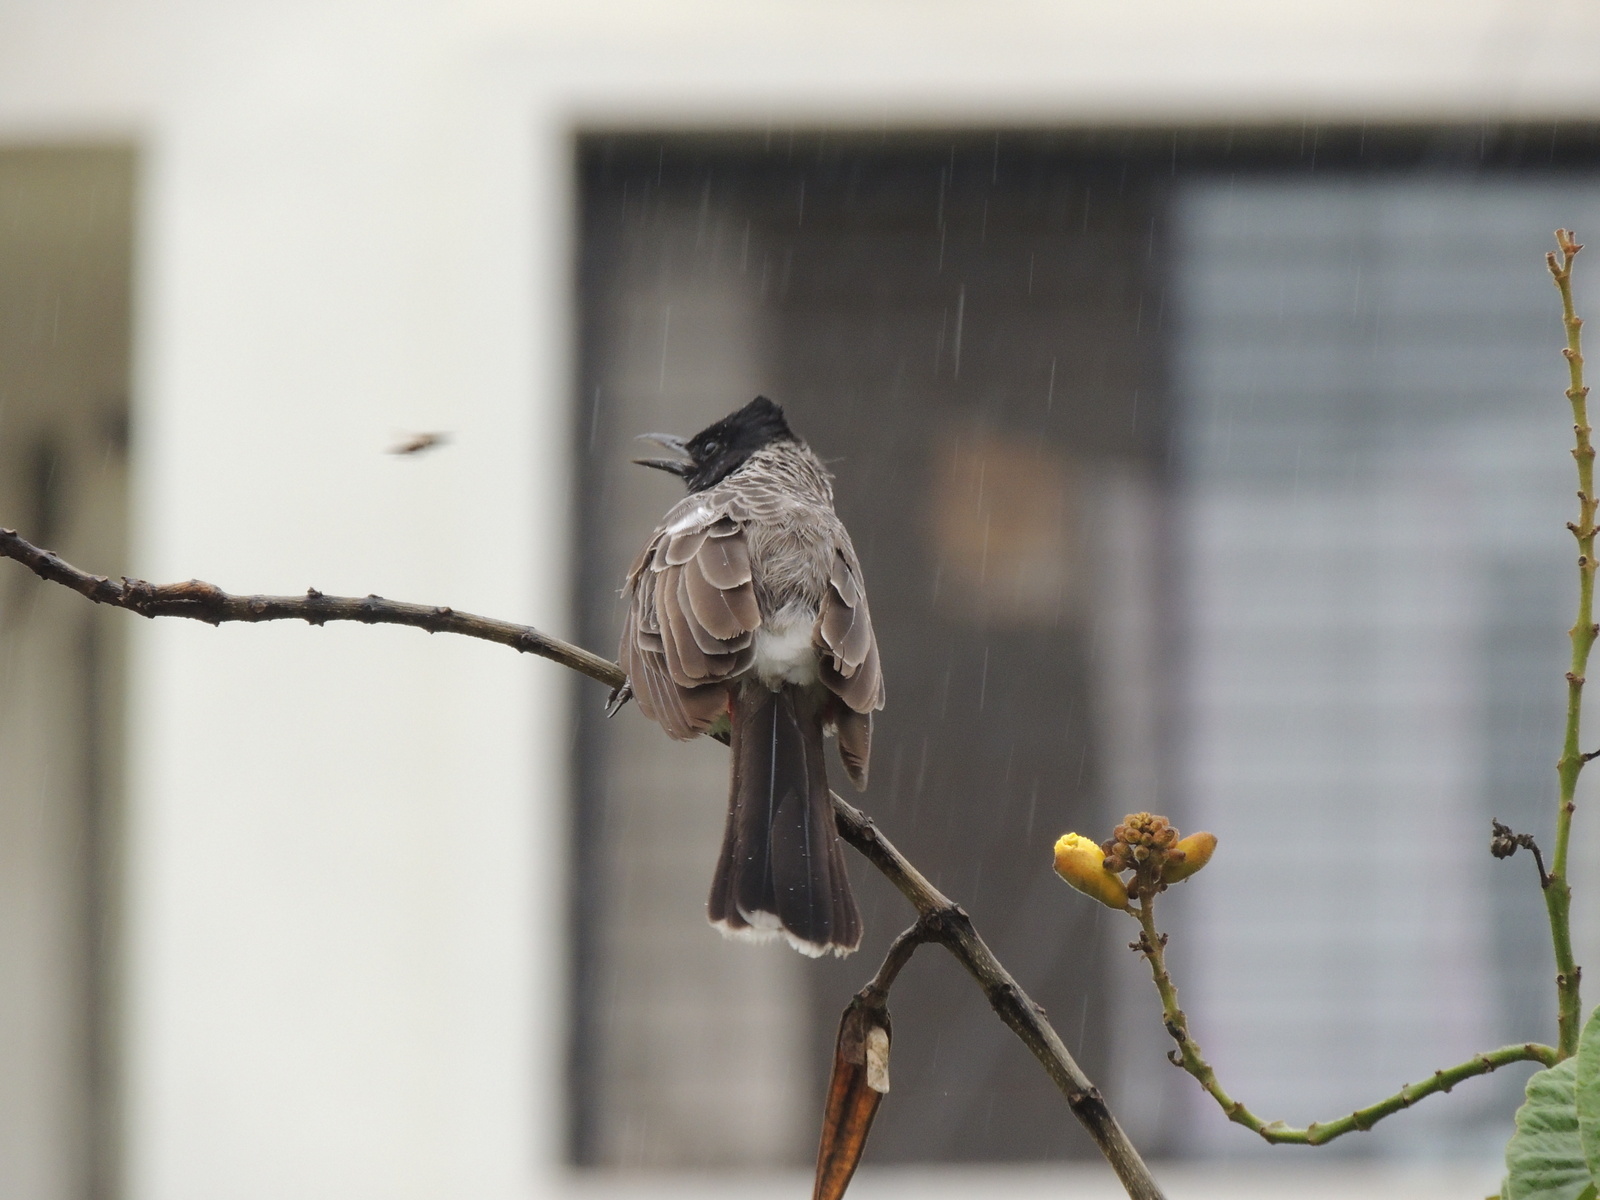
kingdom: Animalia
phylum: Chordata
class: Aves
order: Passeriformes
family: Pycnonotidae
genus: Pycnonotus
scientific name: Pycnonotus cafer
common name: Red-vented bulbul
